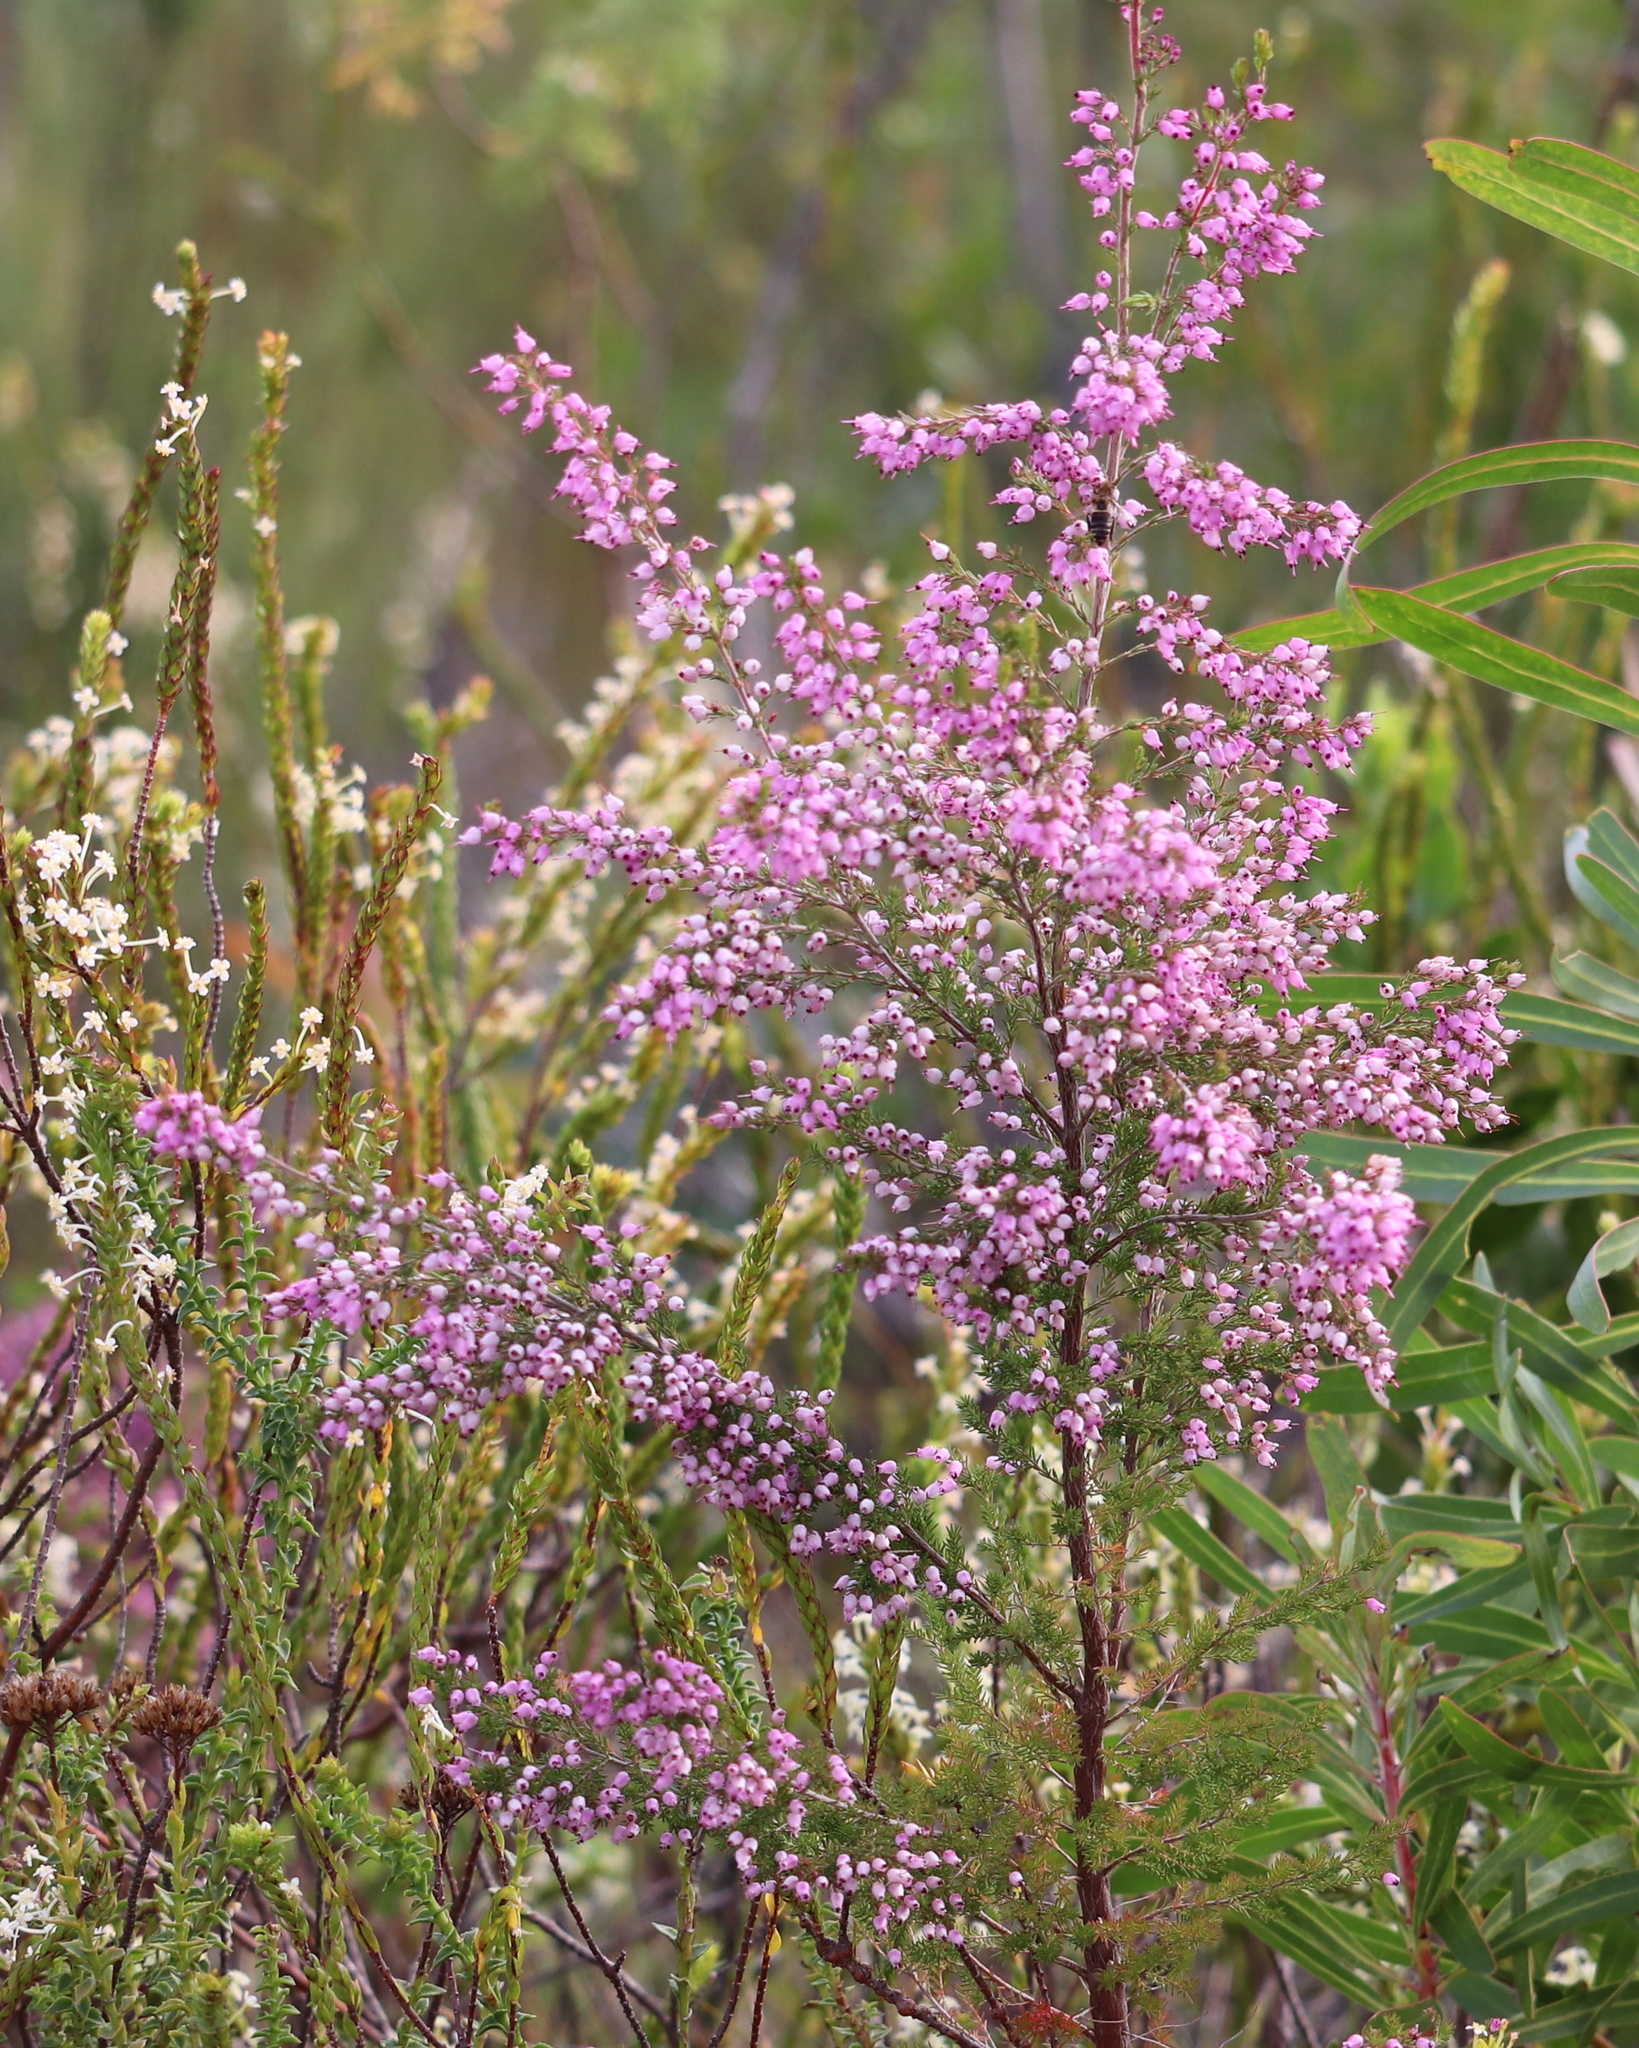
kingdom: Plantae
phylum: Tracheophyta
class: Magnoliopsida
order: Ericales
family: Ericaceae
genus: Erica
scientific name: Erica nutans
